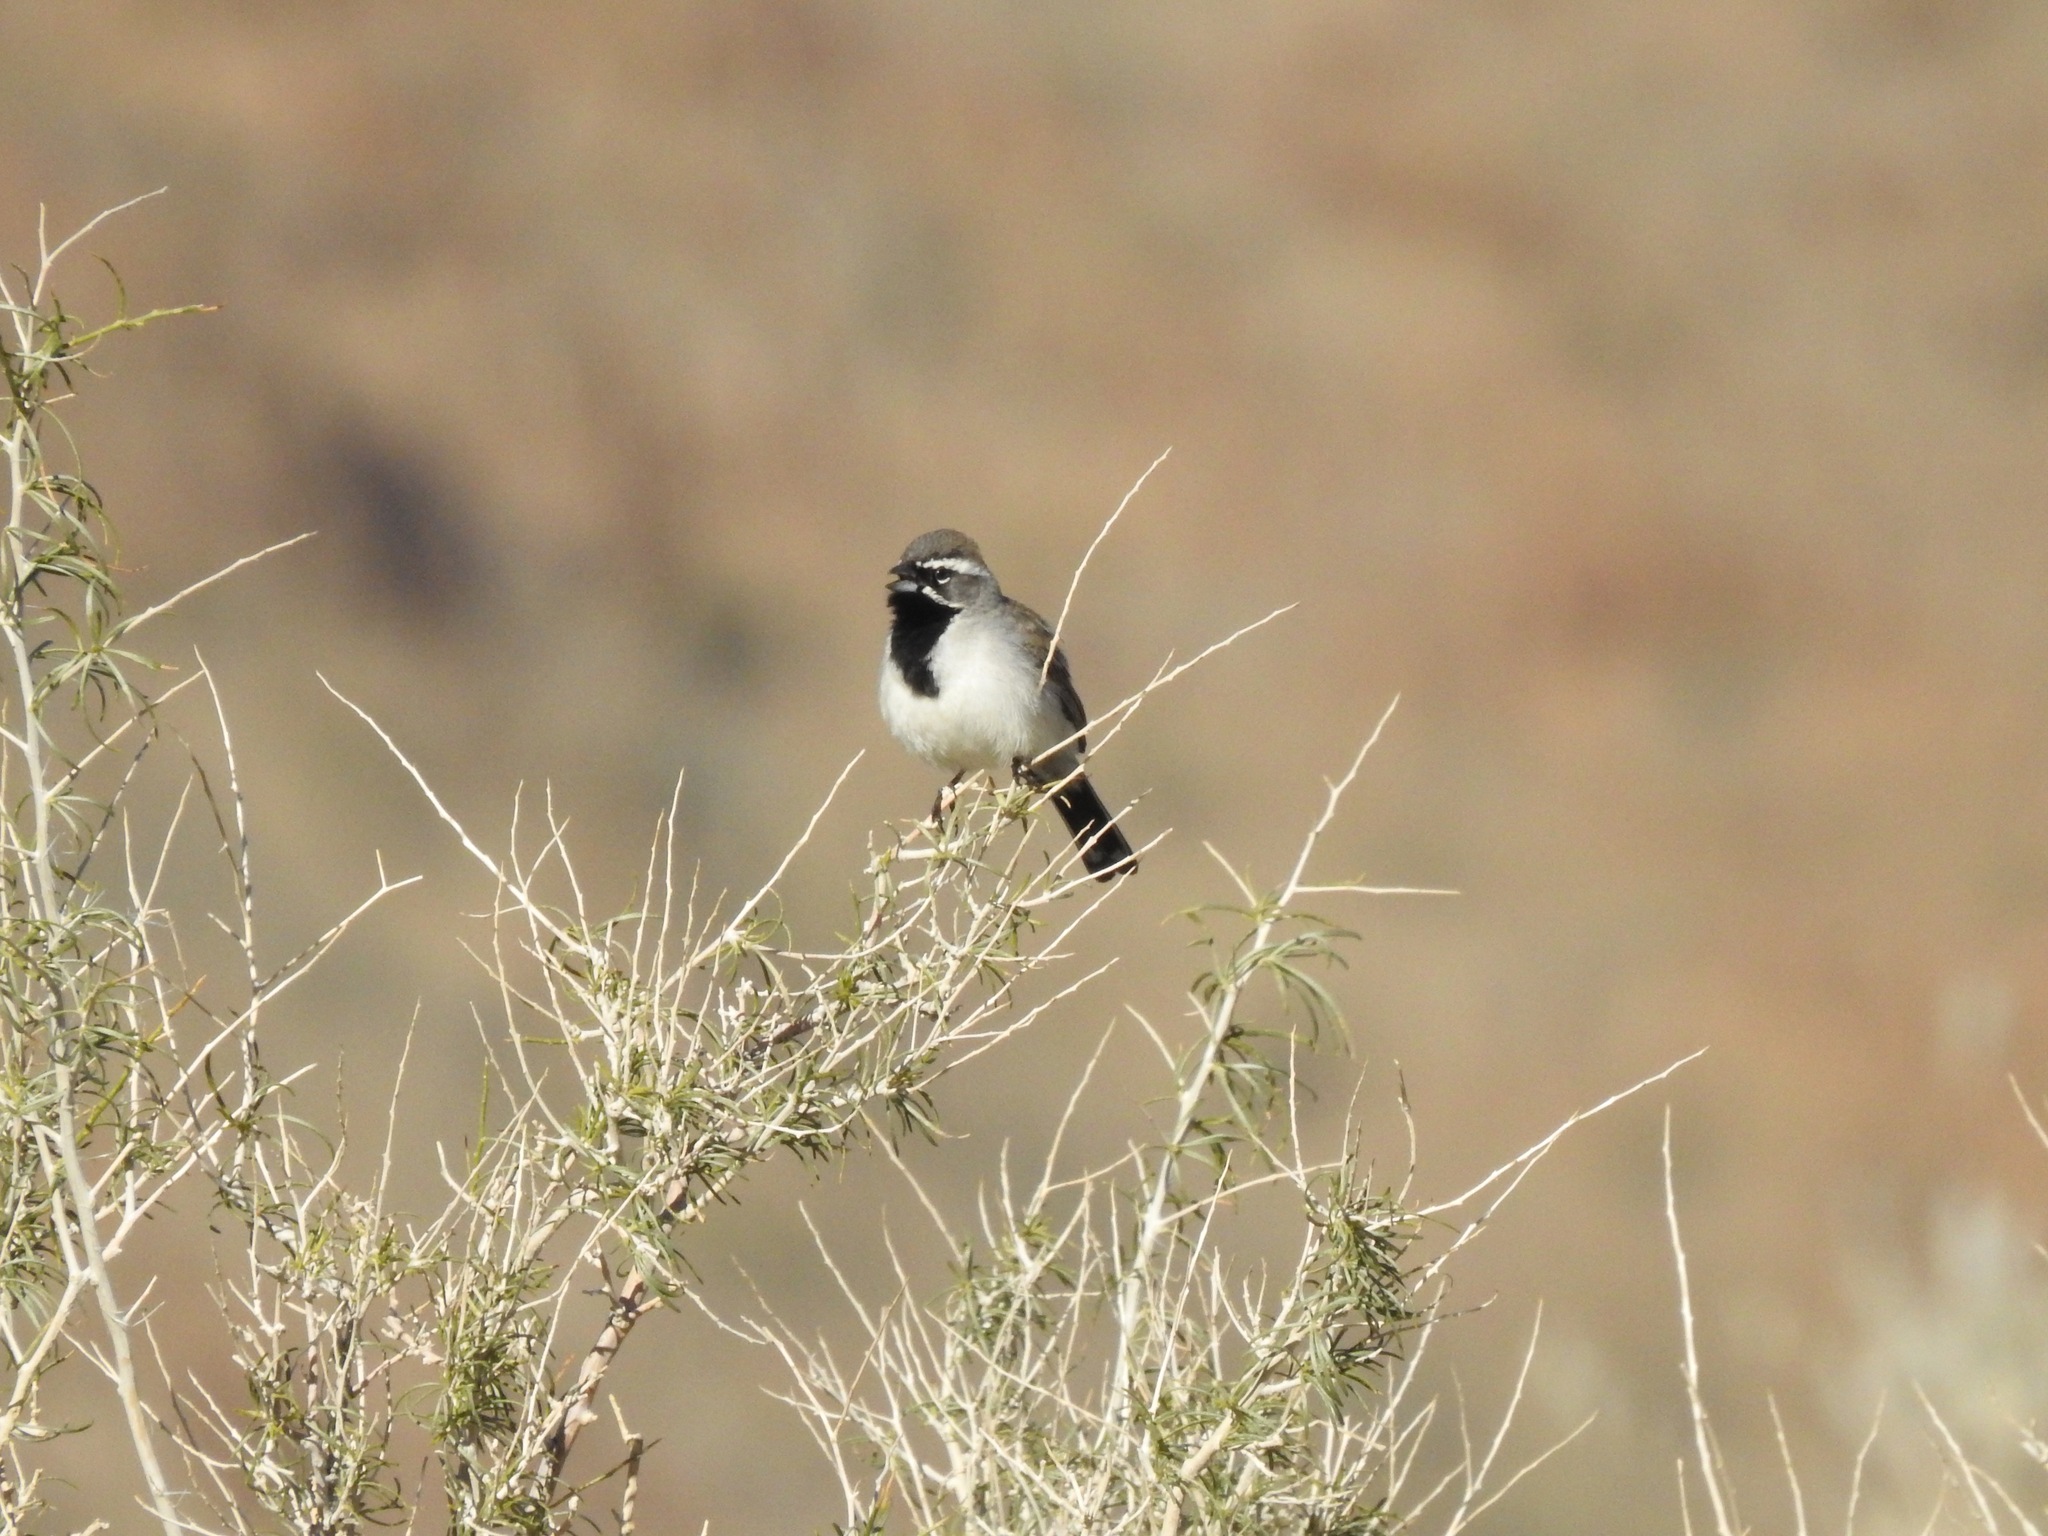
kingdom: Animalia
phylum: Chordata
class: Aves
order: Passeriformes
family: Passerellidae
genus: Amphispiza
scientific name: Amphispiza bilineata
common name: Black-throated sparrow
